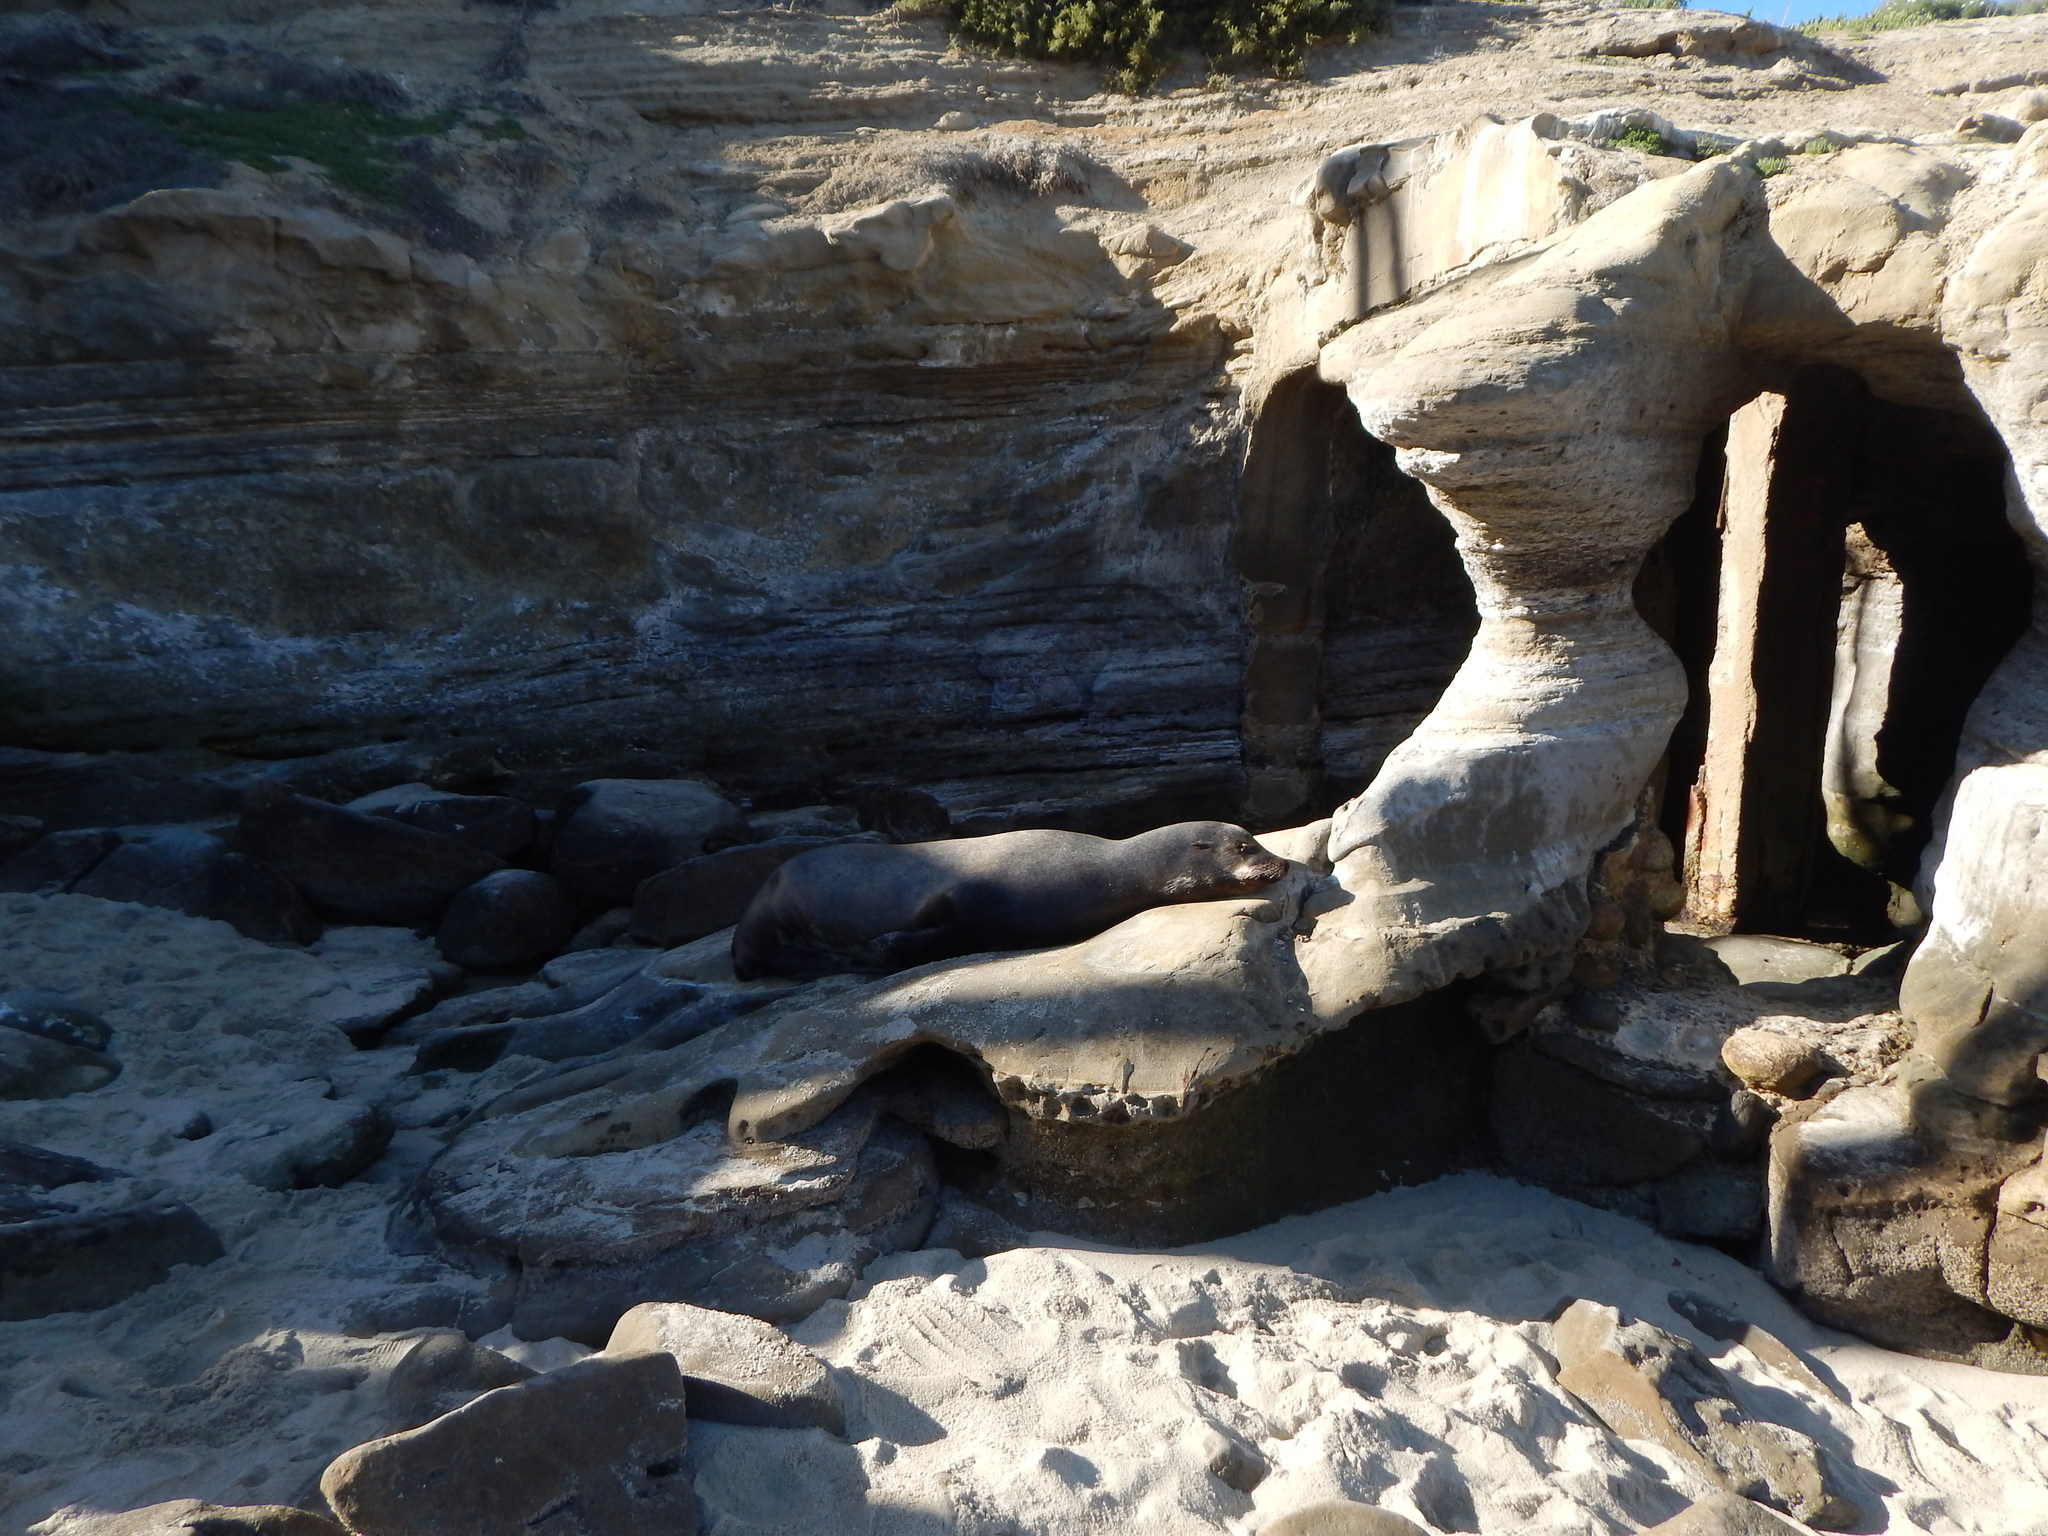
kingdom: Animalia
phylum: Chordata
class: Mammalia
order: Carnivora
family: Otariidae
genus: Zalophus
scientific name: Zalophus californianus
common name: California sea lion
